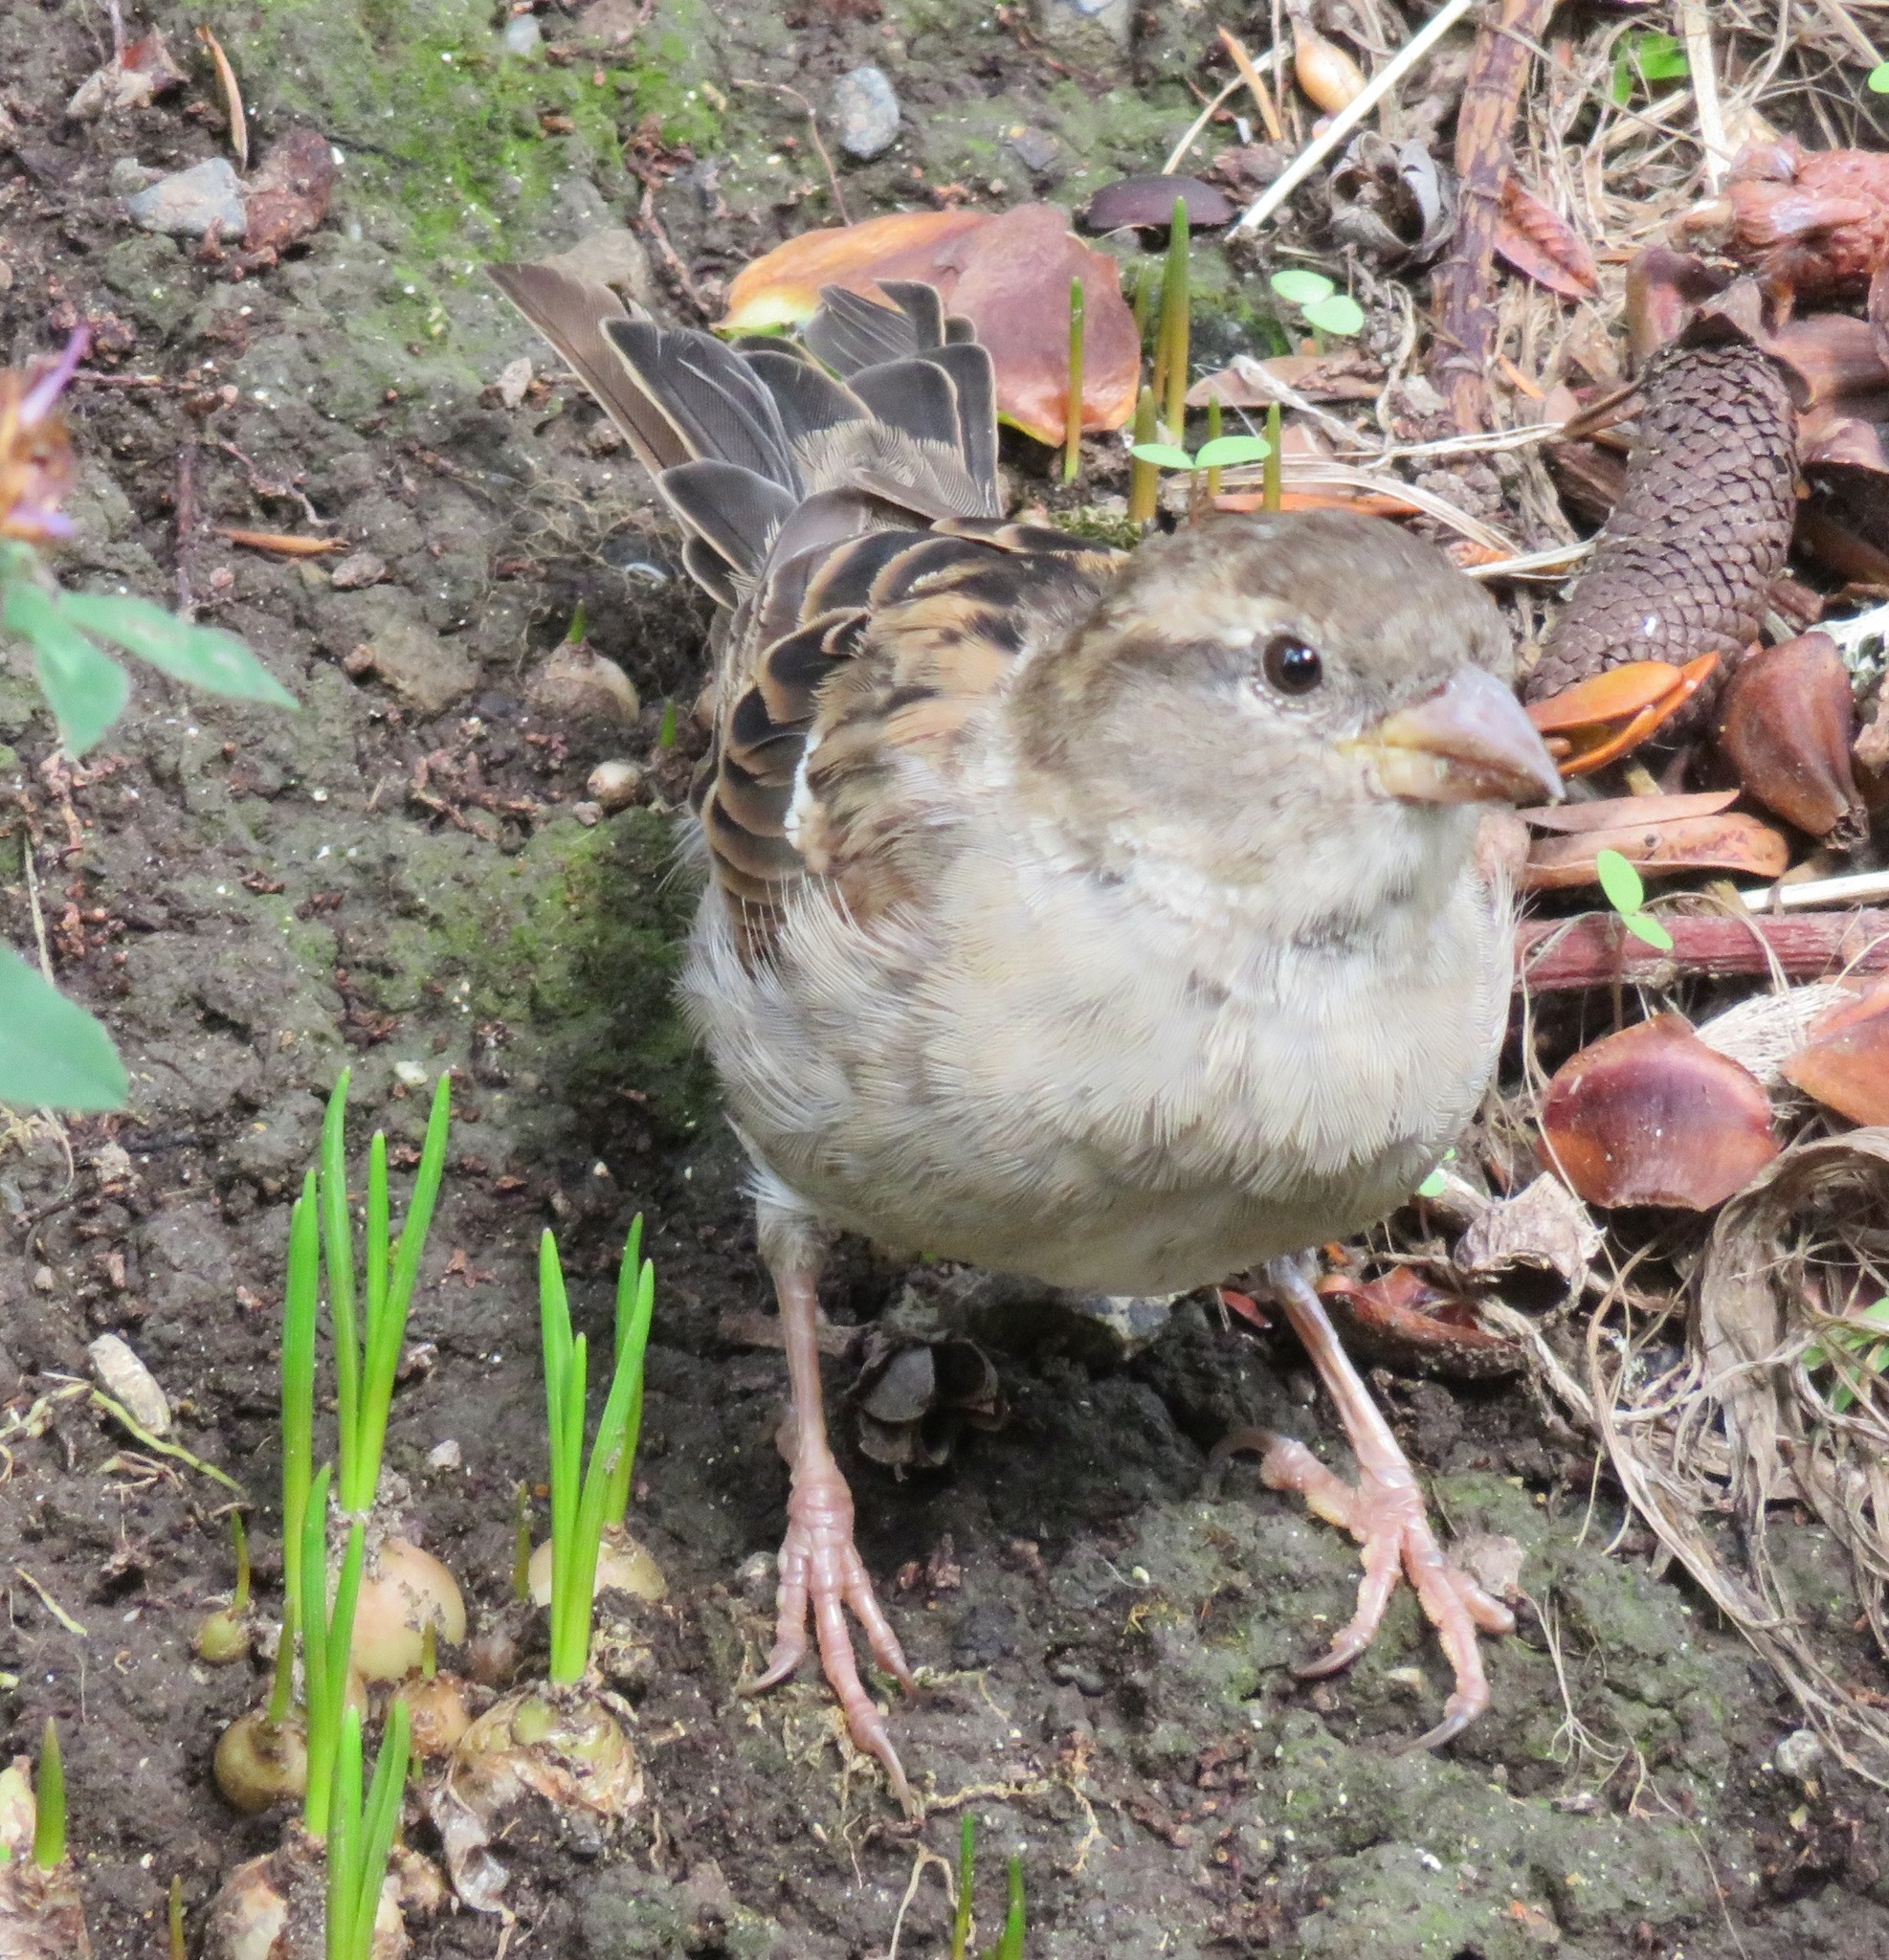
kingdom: Animalia
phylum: Chordata
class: Aves
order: Passeriformes
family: Passeridae
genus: Passer
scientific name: Passer domesticus
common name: House sparrow
